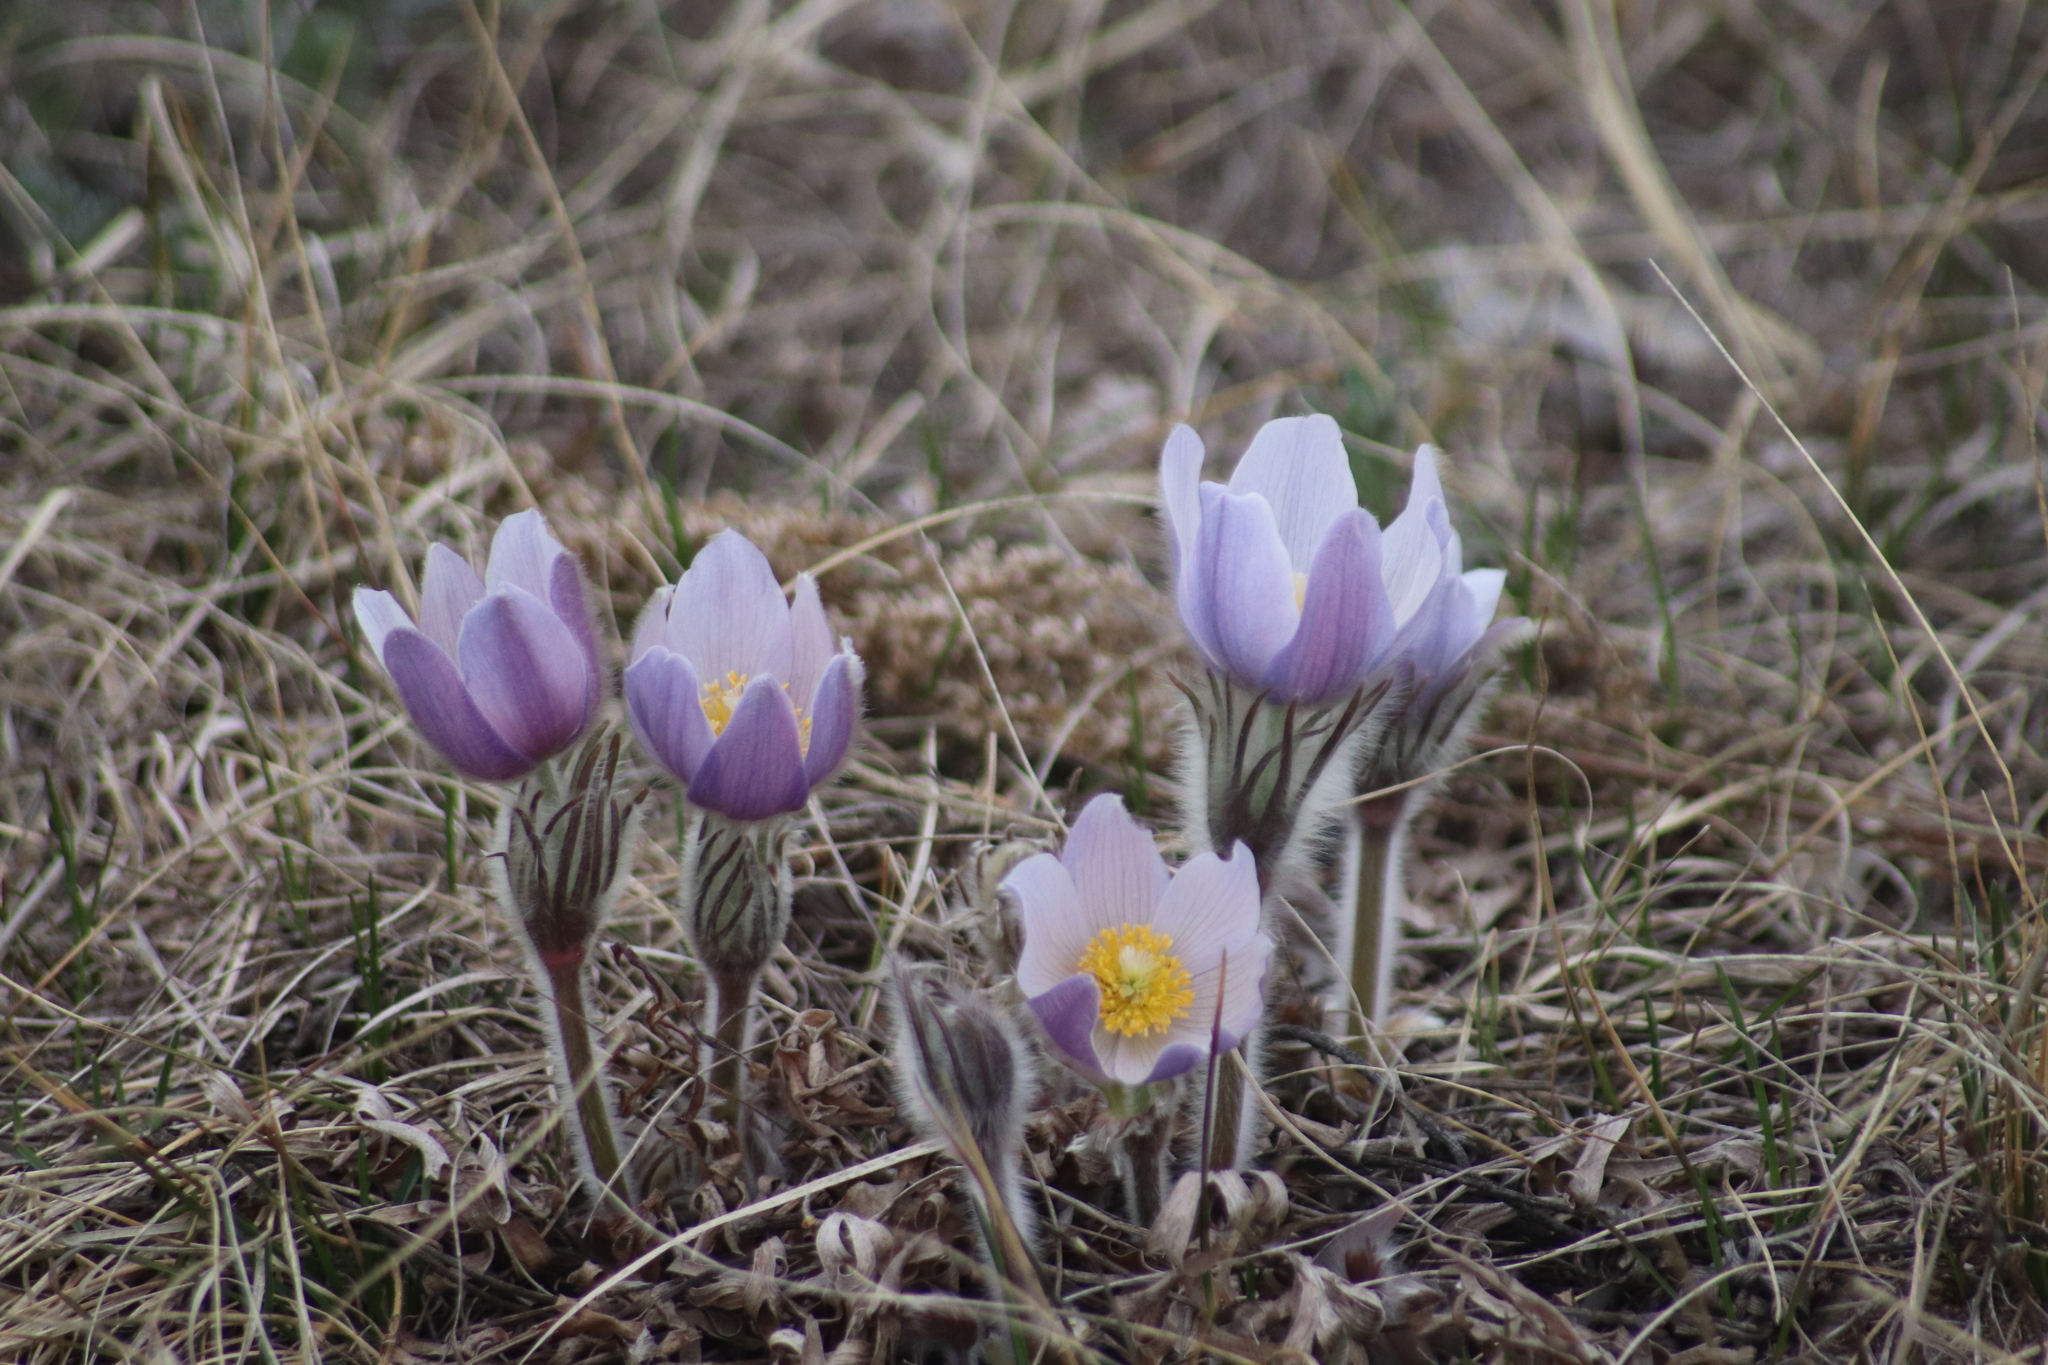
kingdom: Plantae
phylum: Tracheophyta
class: Magnoliopsida
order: Ranunculales
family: Ranunculaceae
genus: Pulsatilla
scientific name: Pulsatilla nuttalliana
